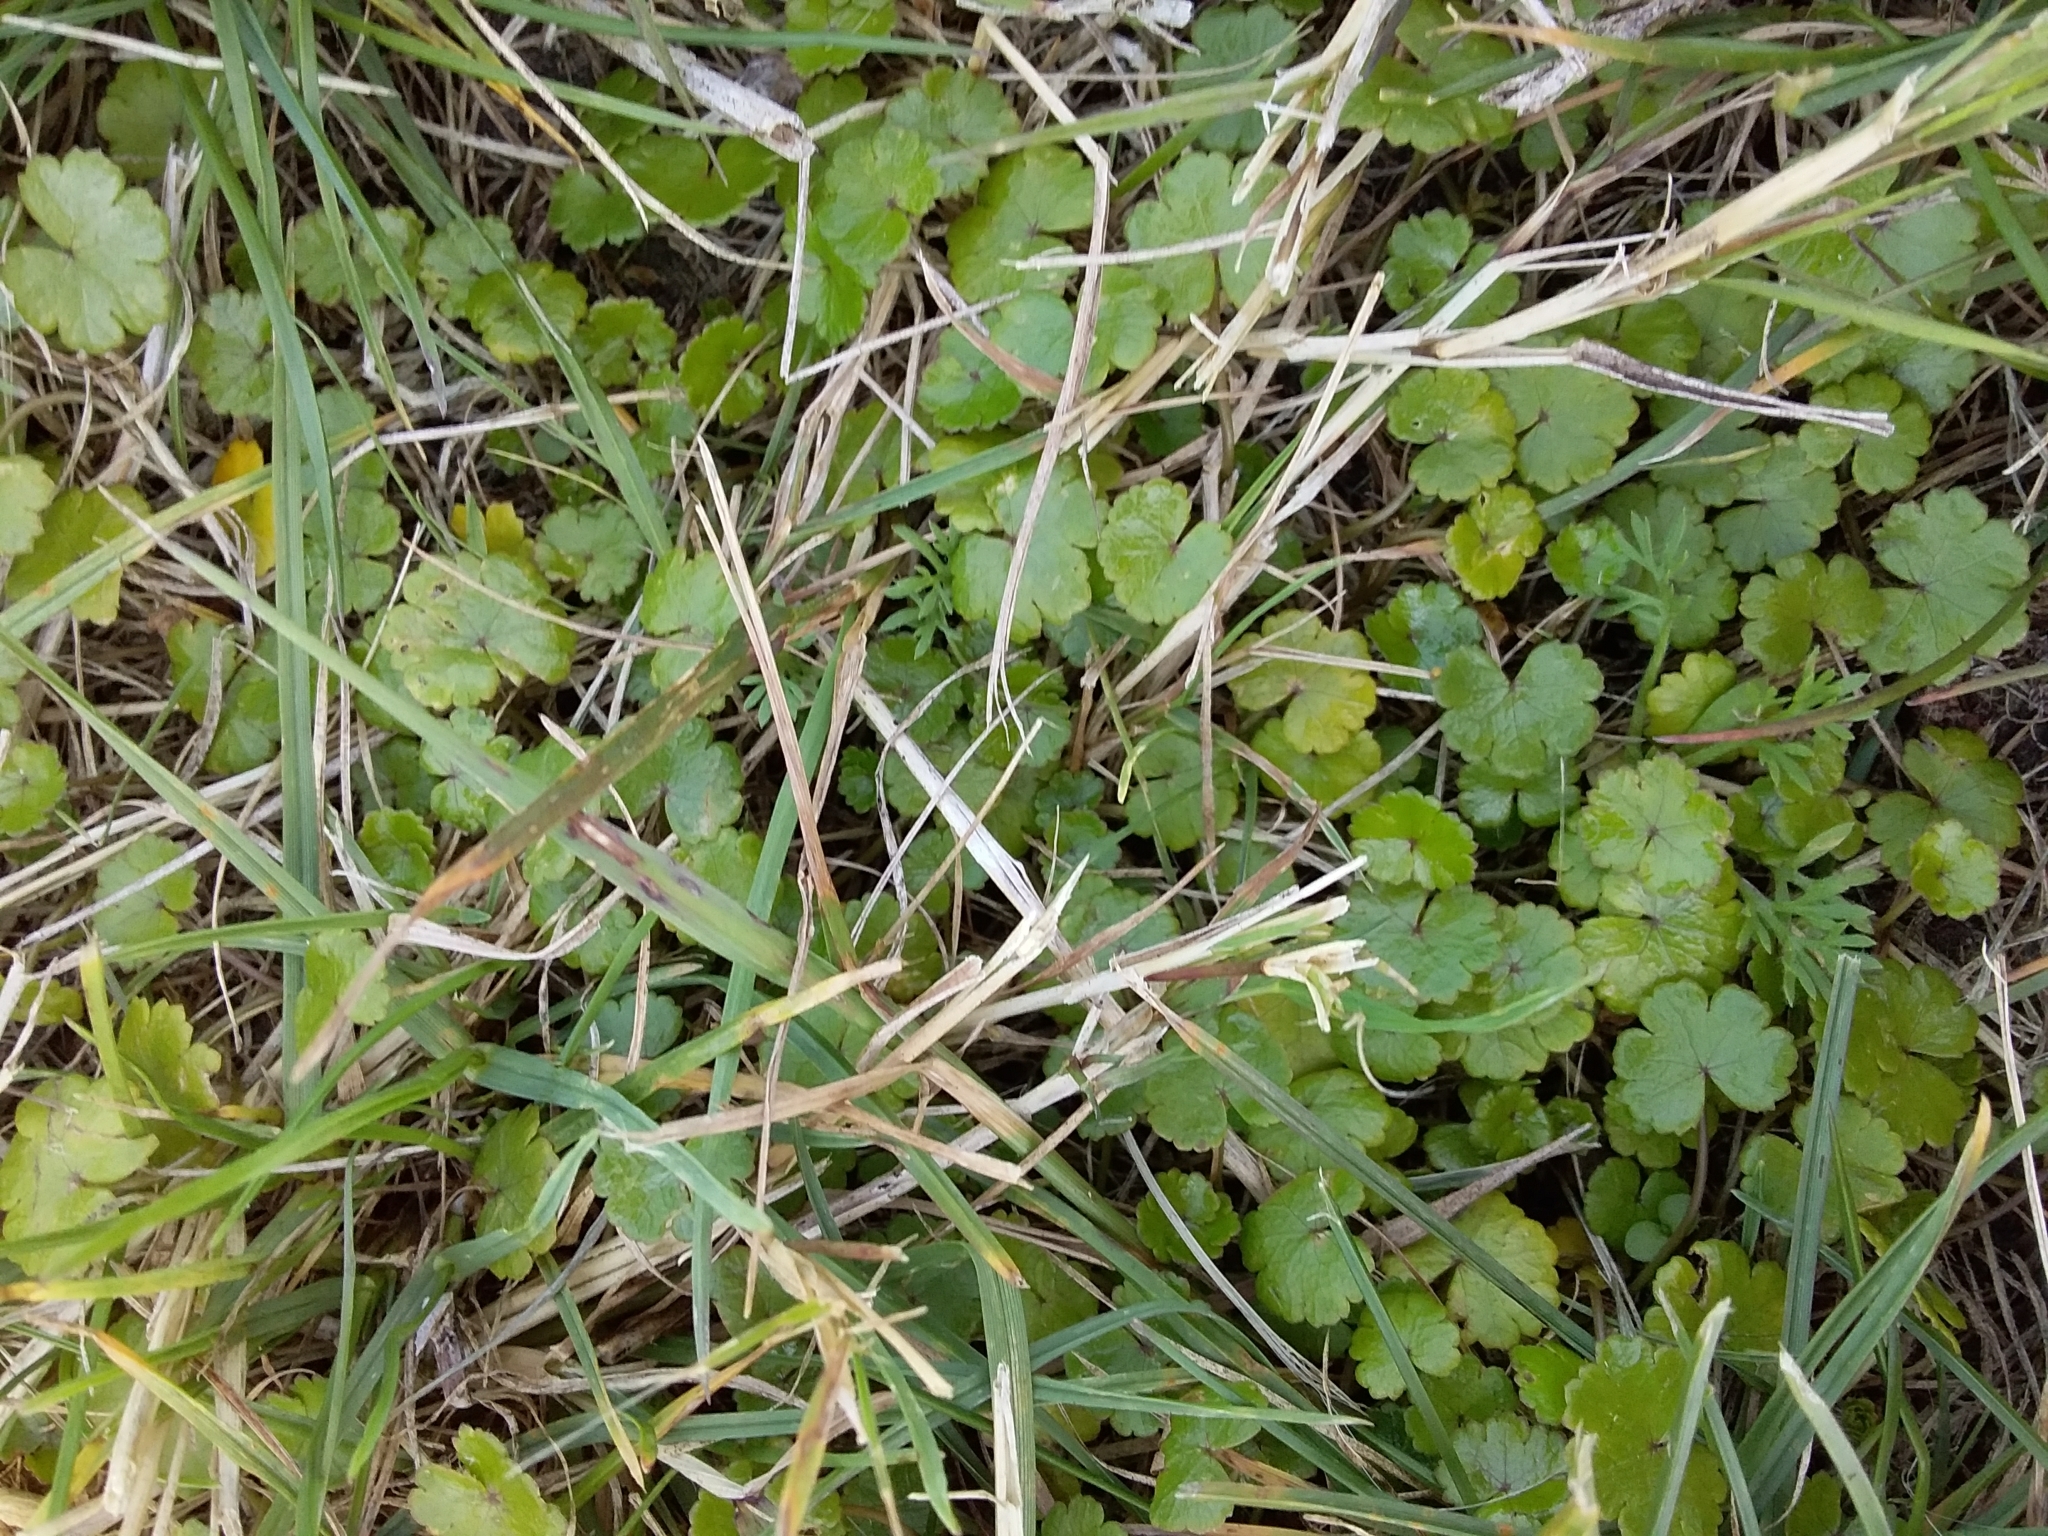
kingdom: Plantae
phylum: Tracheophyta
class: Magnoliopsida
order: Apiales
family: Araliaceae
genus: Hydrocotyle
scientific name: Hydrocotyle heteromeria
